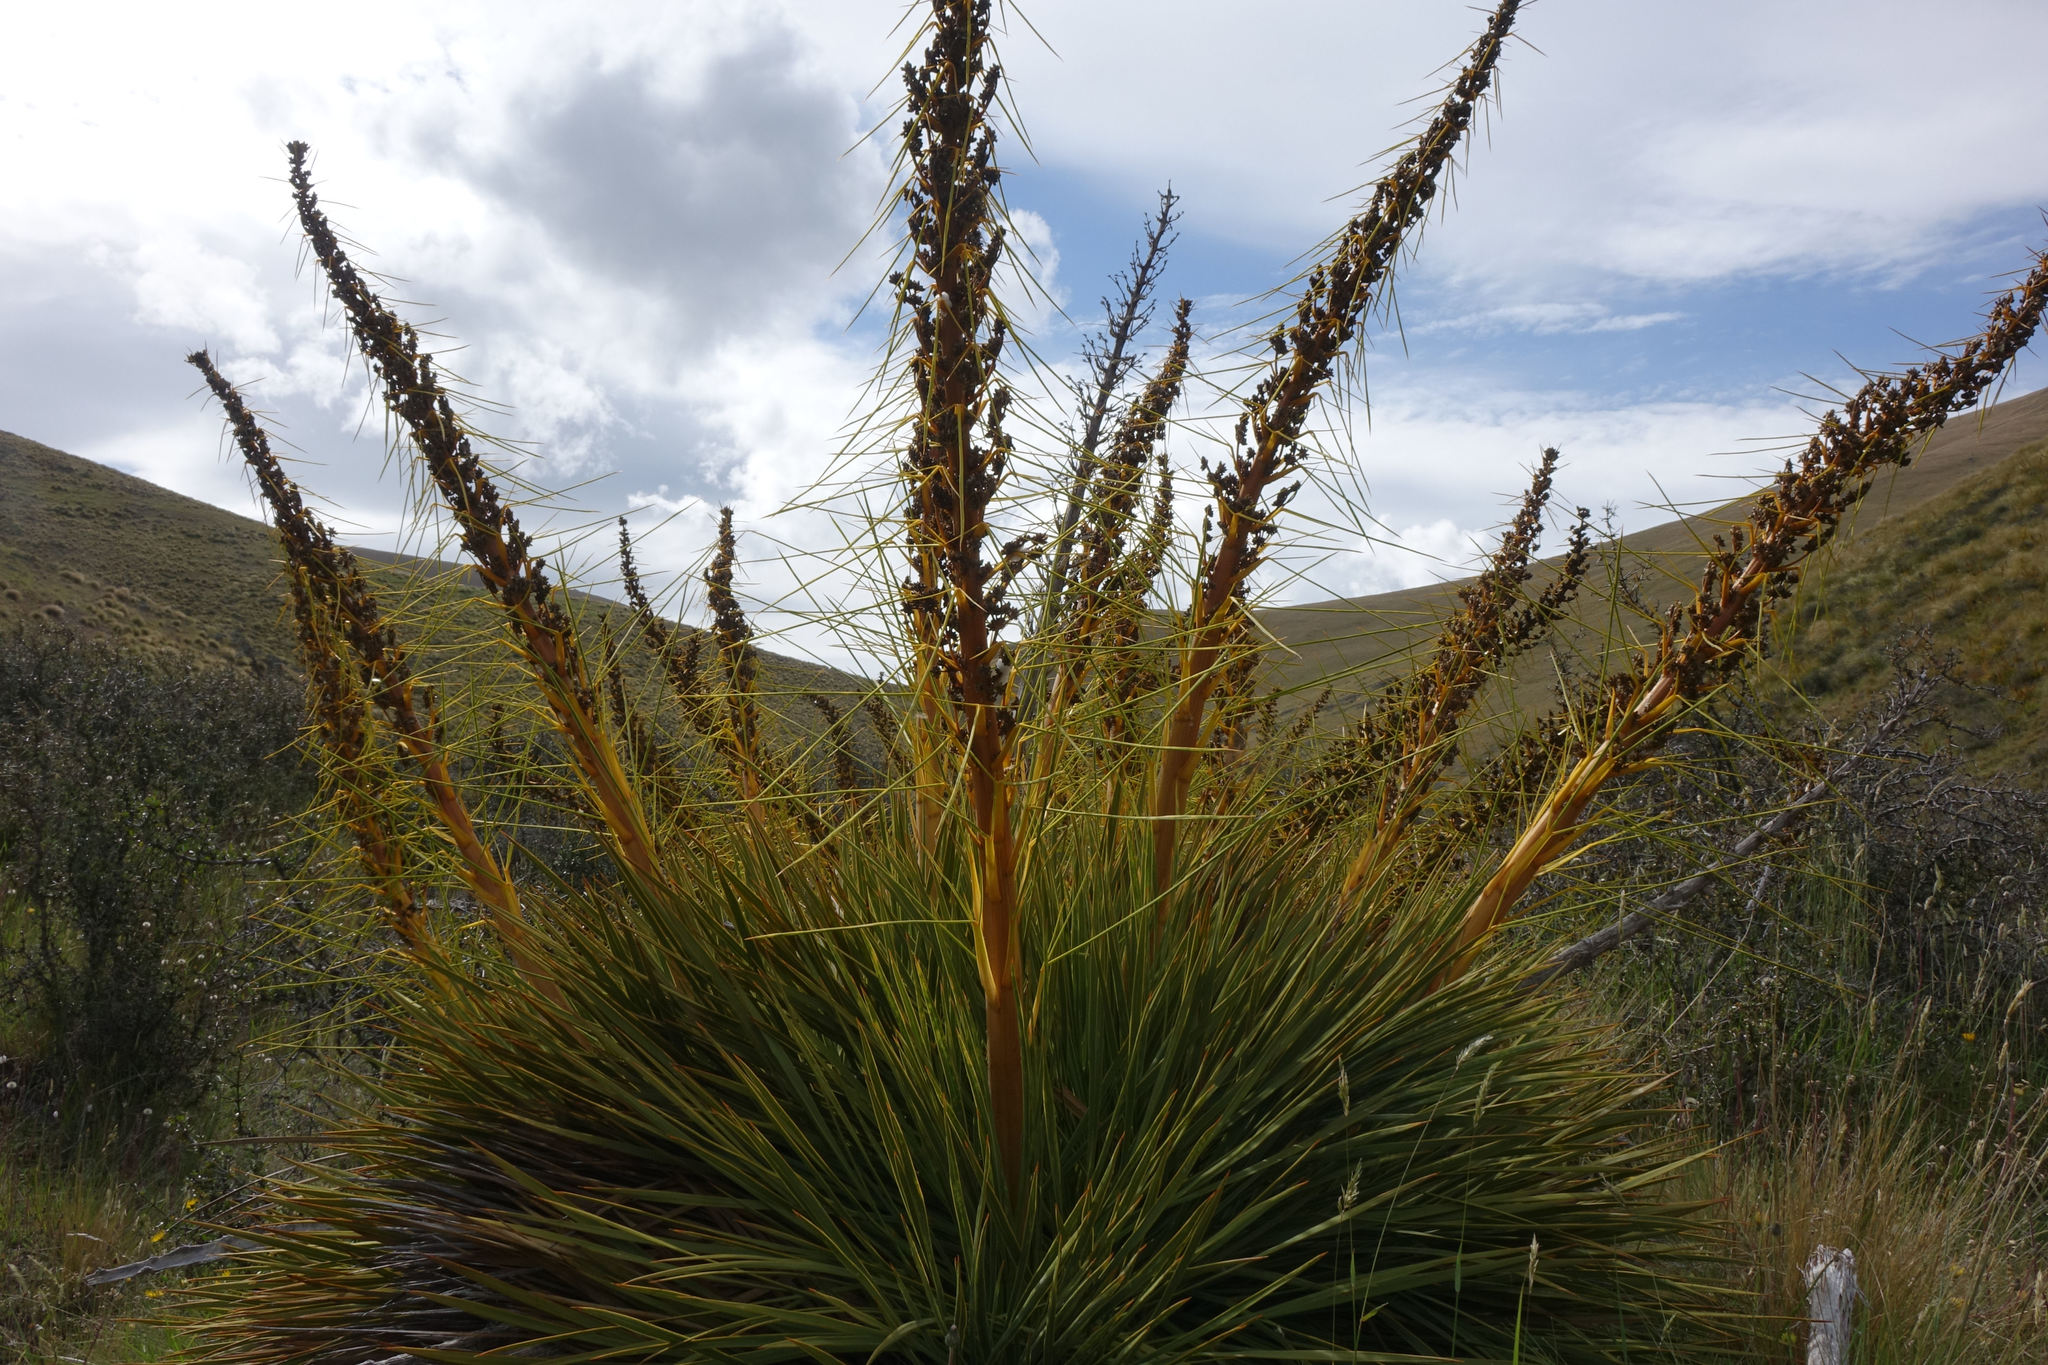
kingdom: Plantae
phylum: Tracheophyta
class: Magnoliopsida
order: Apiales
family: Apiaceae
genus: Aciphylla
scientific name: Aciphylla aurea
